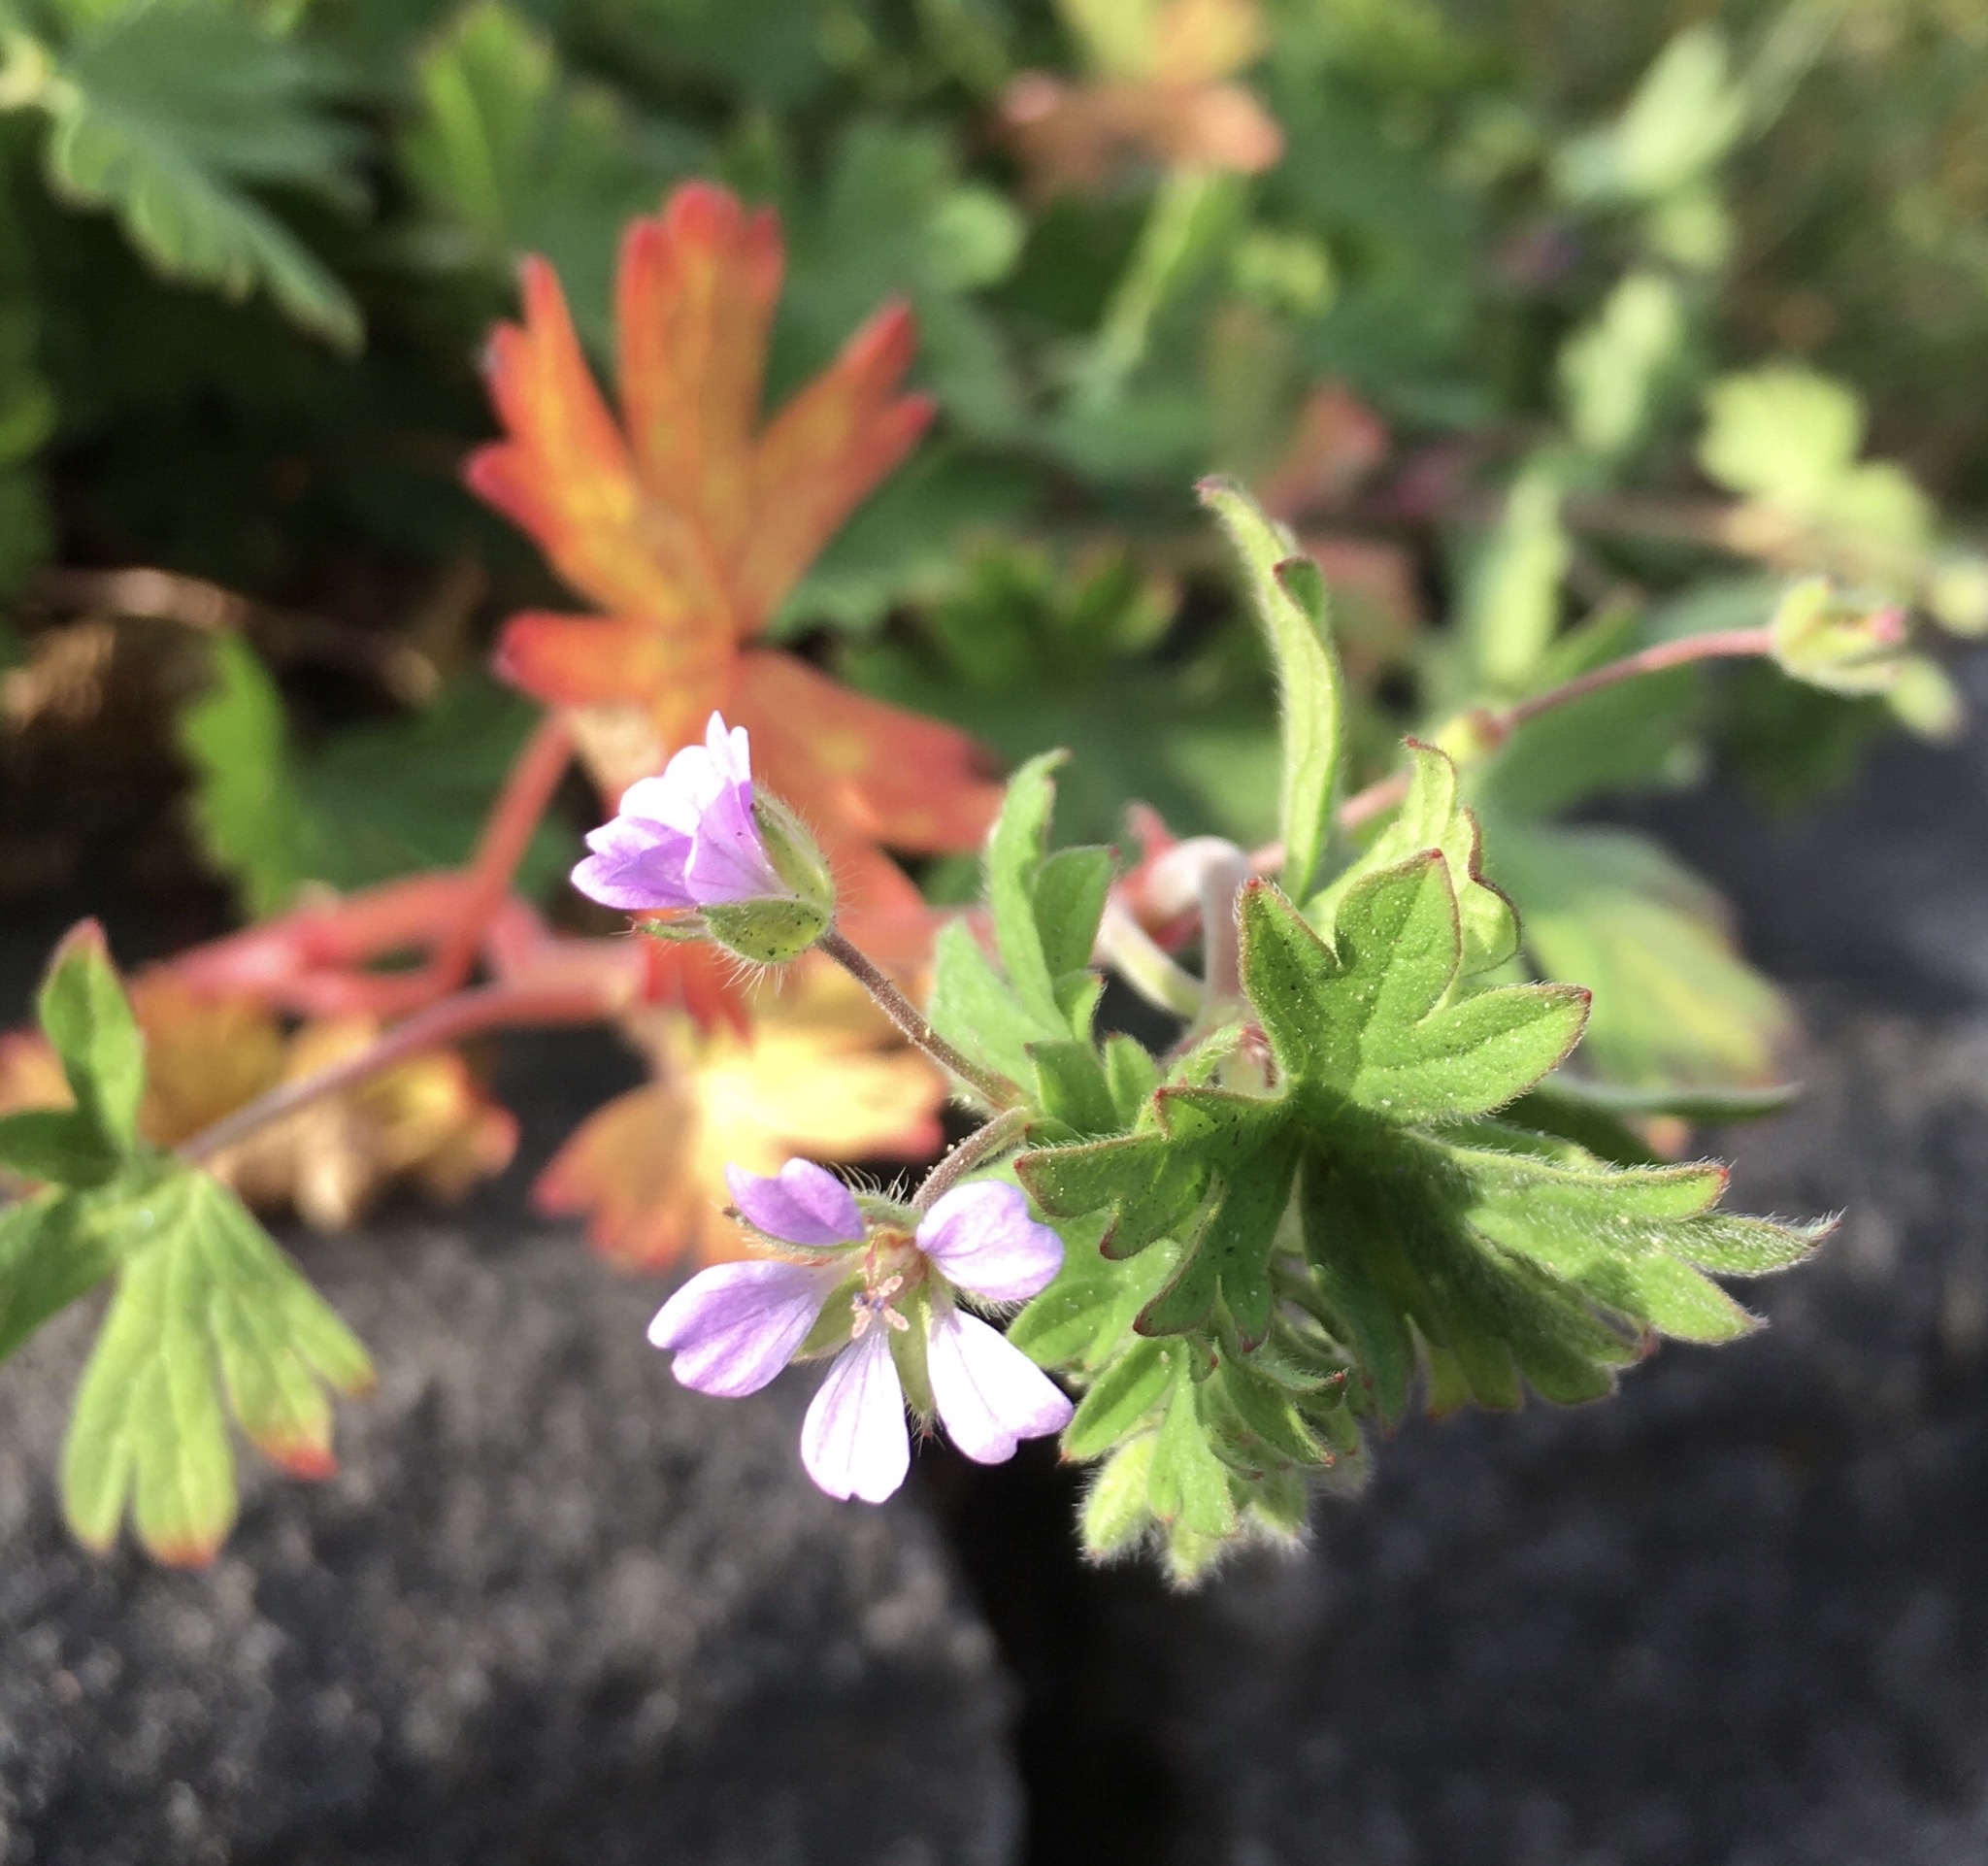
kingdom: Plantae
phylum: Tracheophyta
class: Magnoliopsida
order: Geraniales
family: Geraniaceae
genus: Geranium
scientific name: Geranium molle
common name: Dove's-foot crane's-bill
